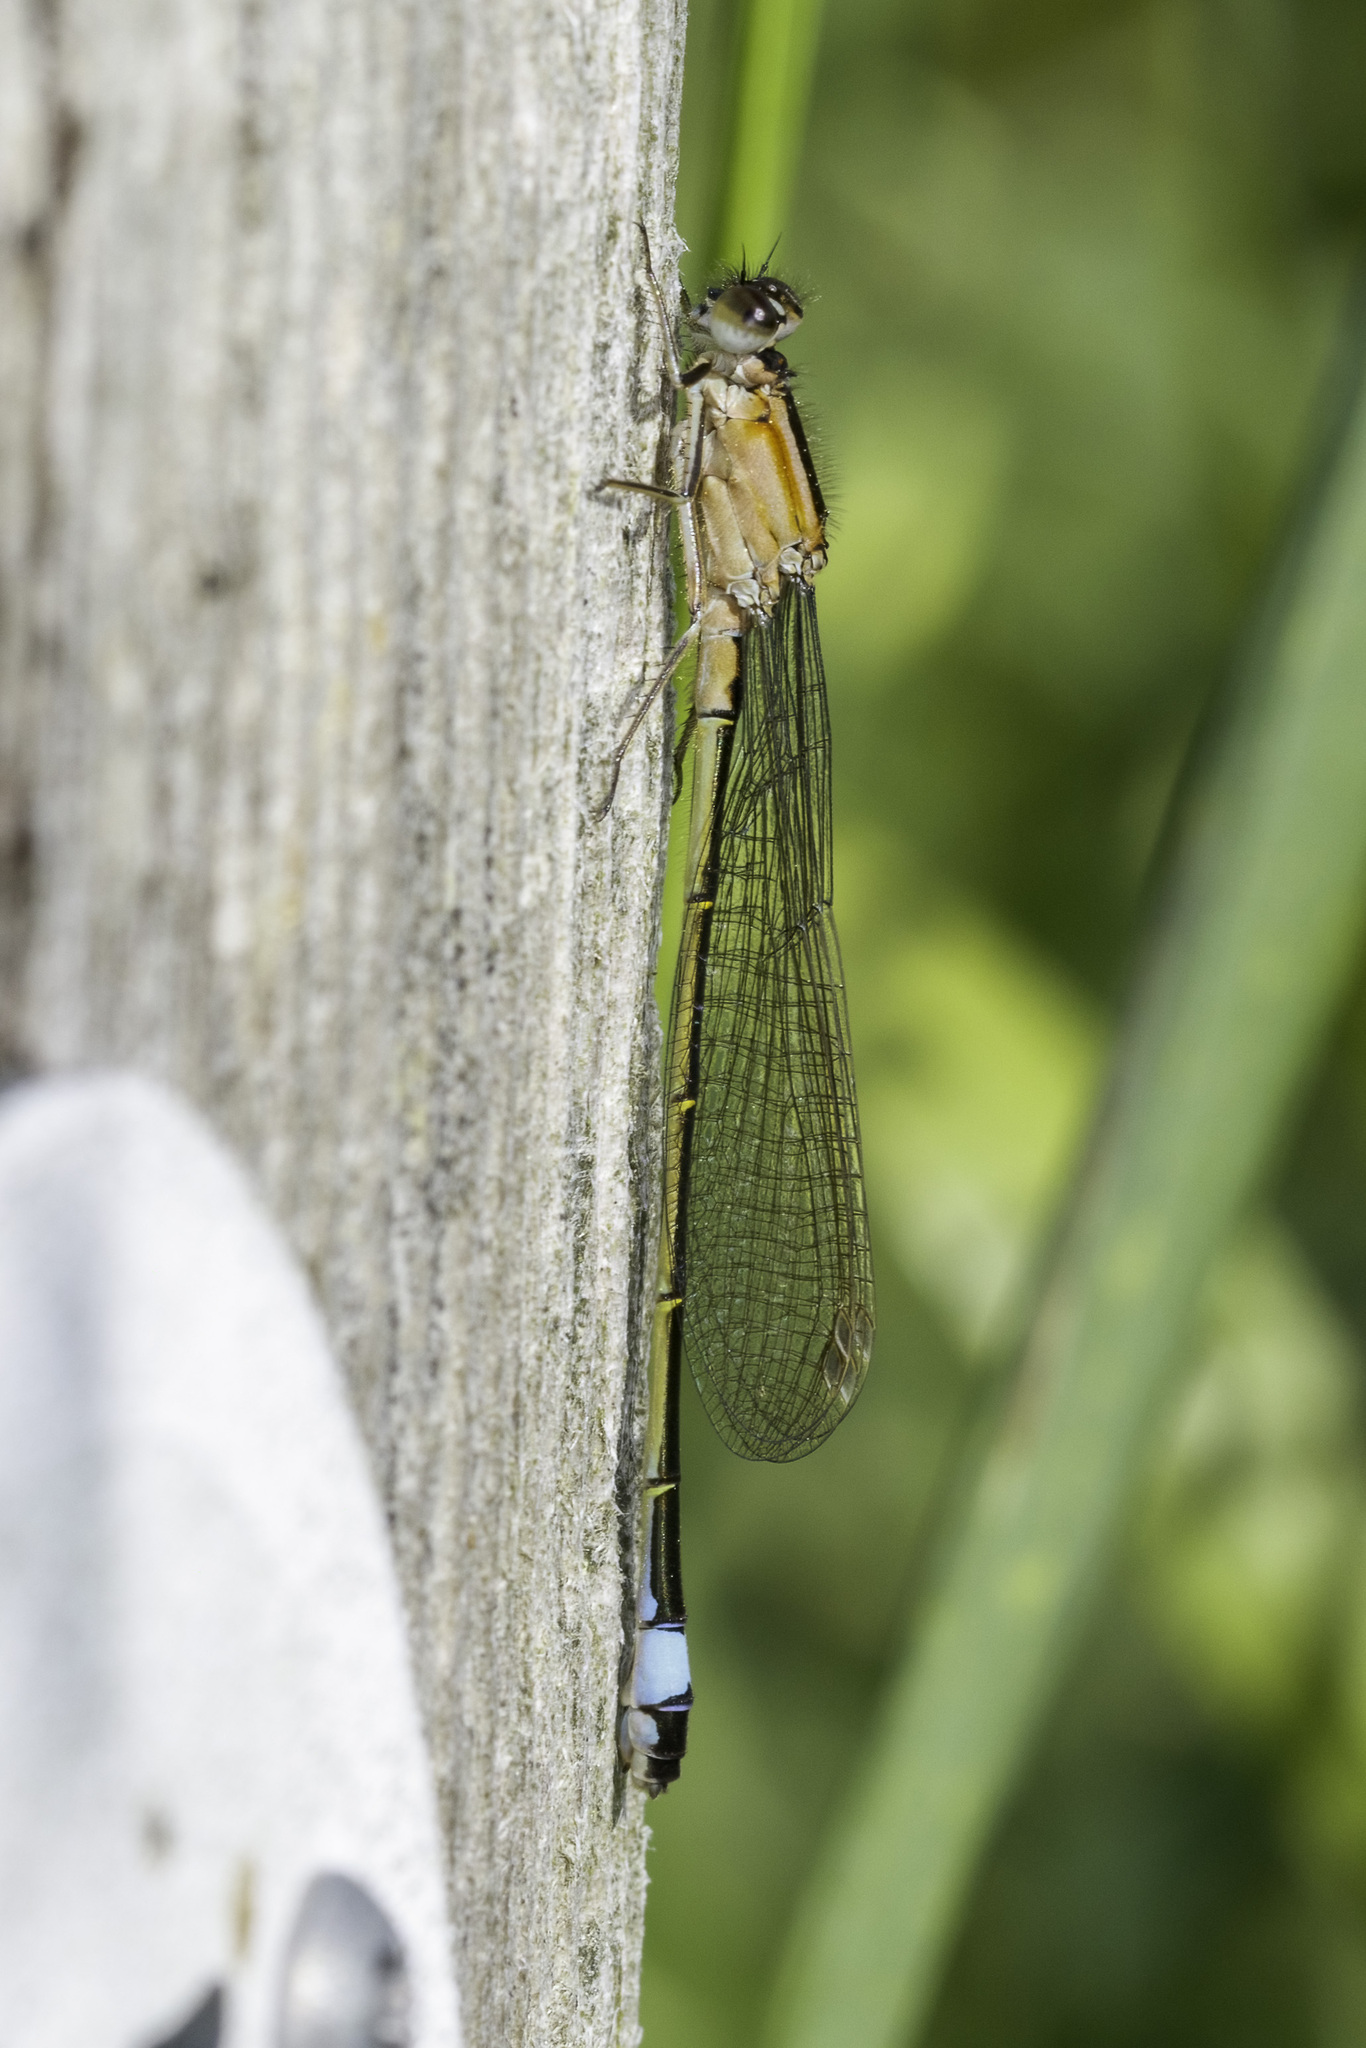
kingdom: Animalia
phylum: Arthropoda
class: Insecta
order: Odonata
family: Coenagrionidae
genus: Ischnura
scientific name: Ischnura elegans
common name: Blue-tailed damselfly
